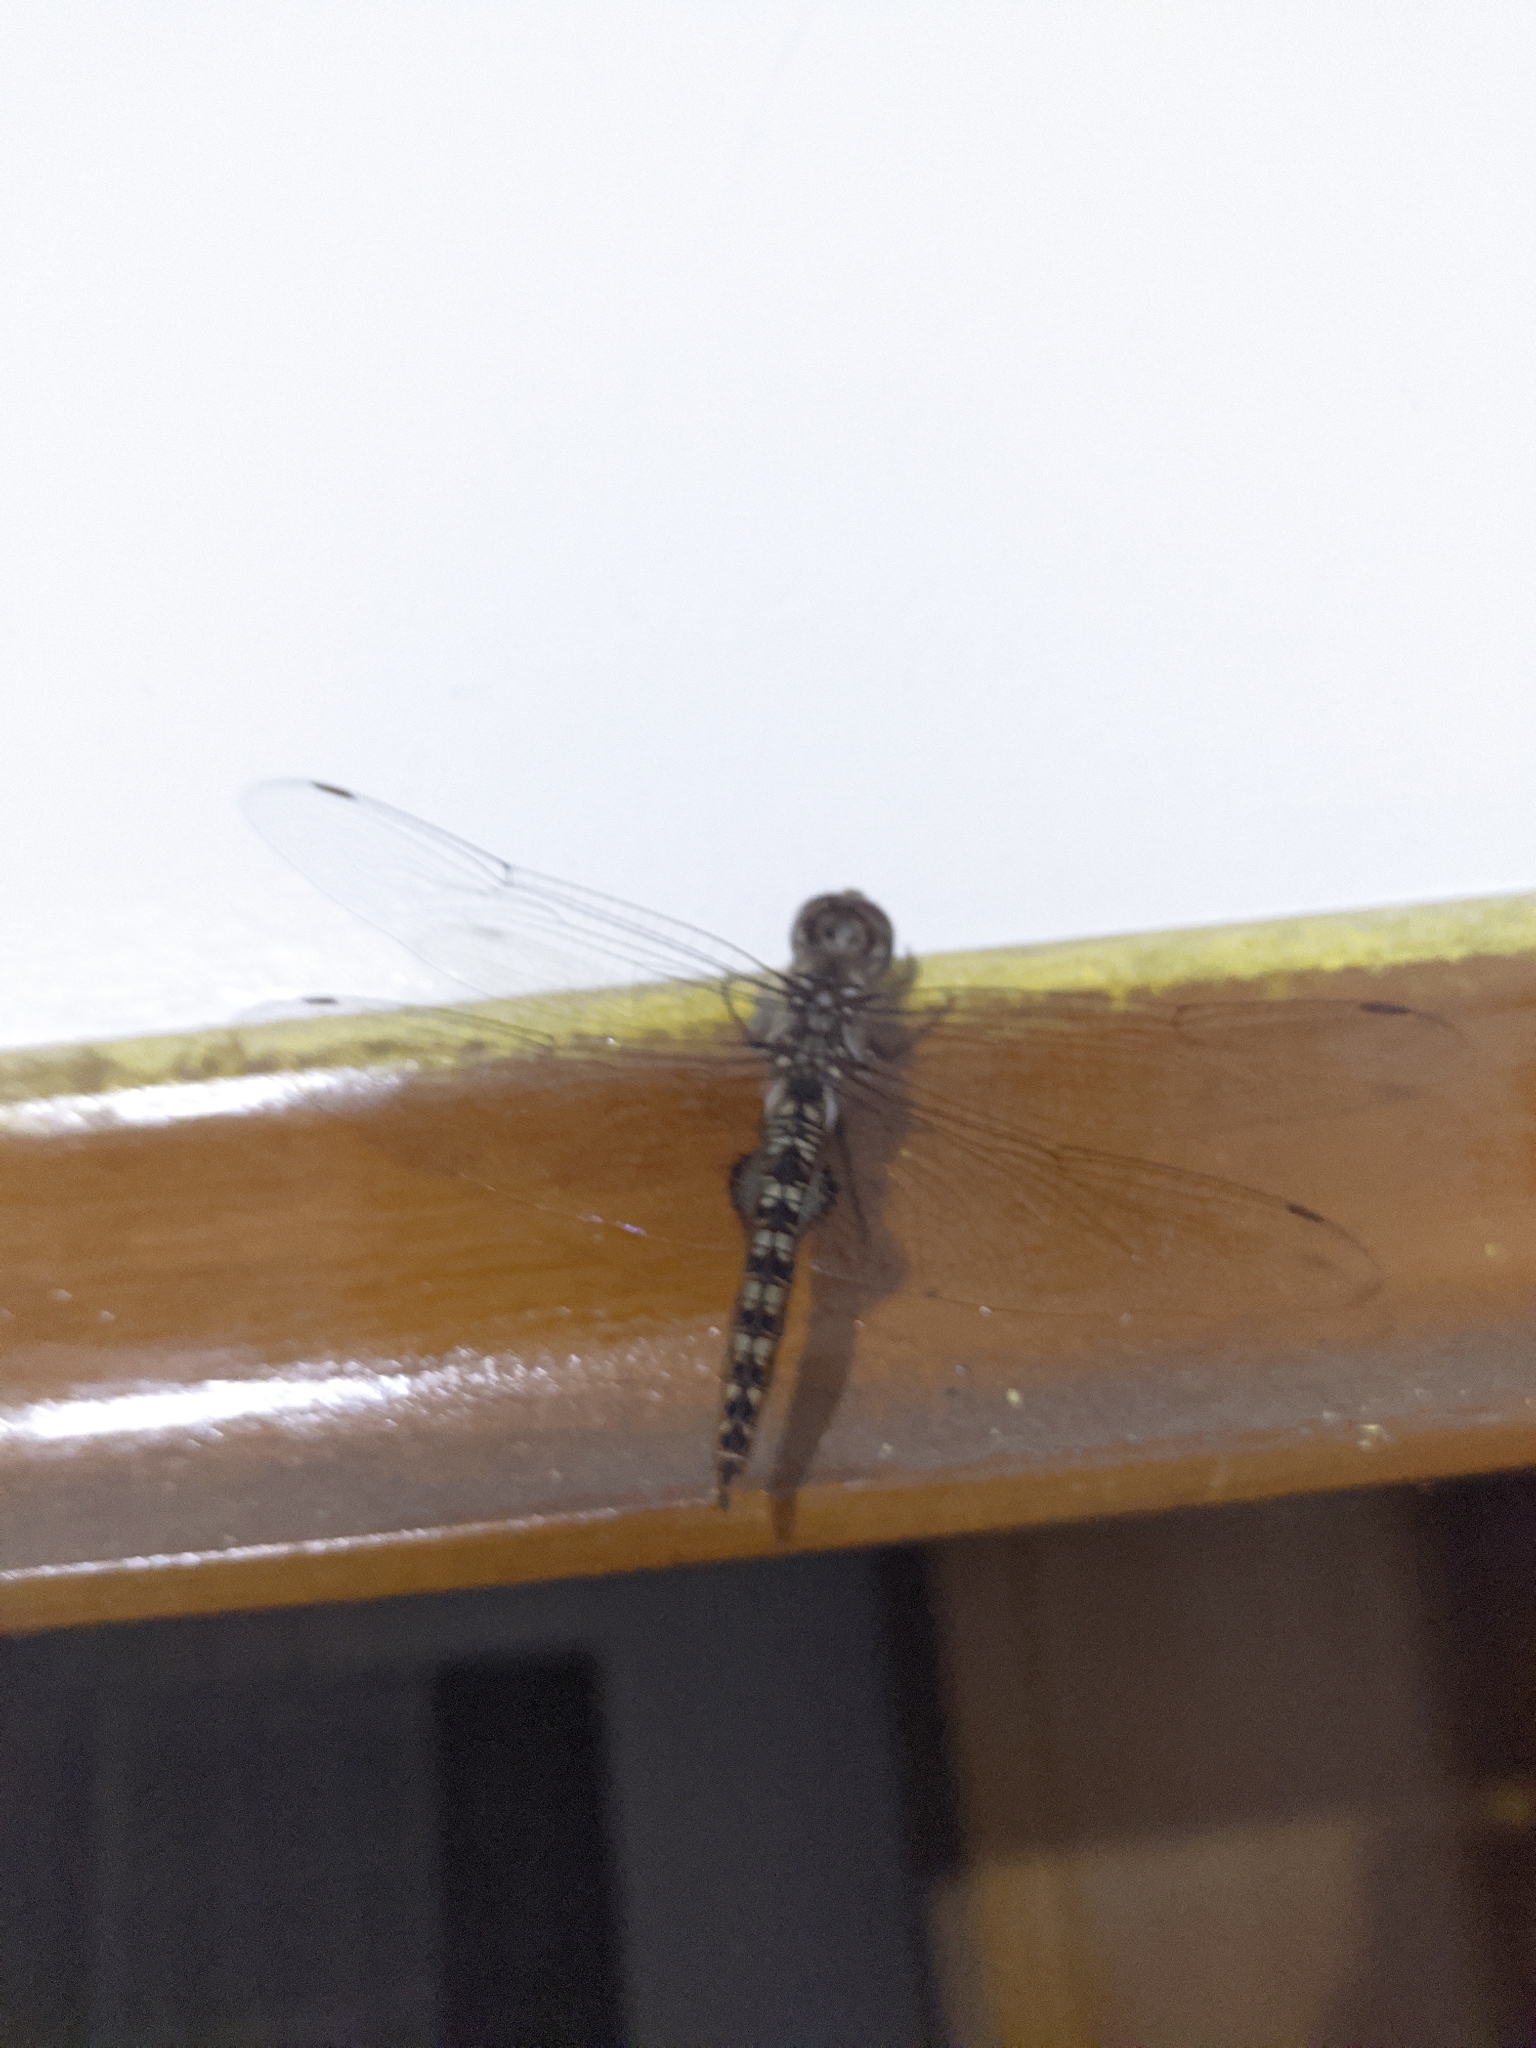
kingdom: Animalia
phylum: Arthropoda
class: Insecta
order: Odonata
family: Libellulidae
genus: Pantala
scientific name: Pantala hymenaea
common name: Spot-winged glider
